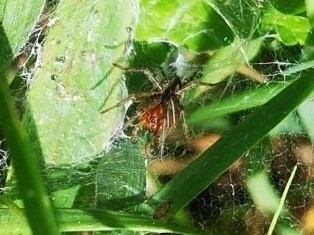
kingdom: Animalia
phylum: Arthropoda
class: Arachnida
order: Araneae
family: Agelenidae
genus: Allagelena
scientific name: Allagelena gracilens
